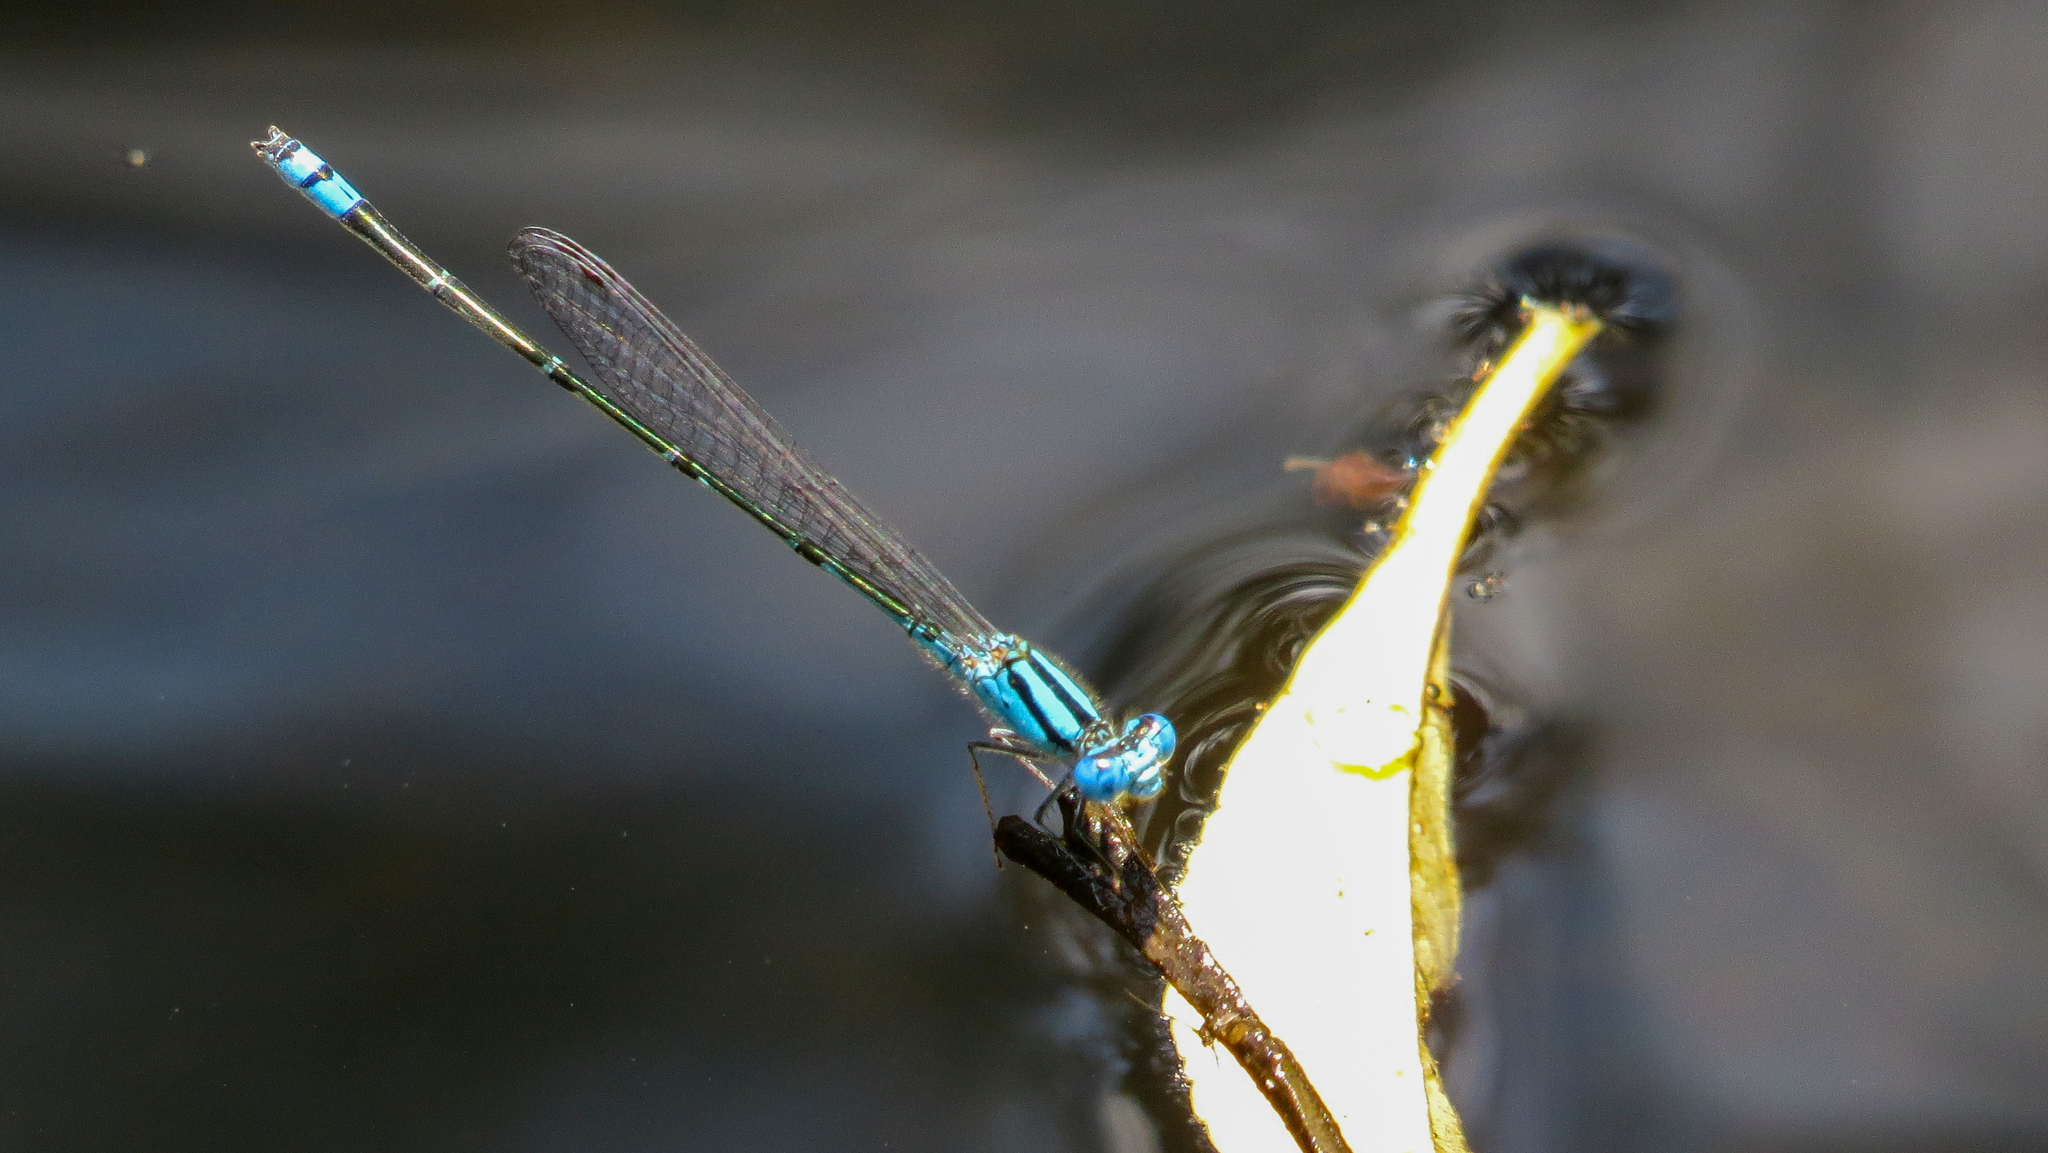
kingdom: Animalia
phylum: Arthropoda
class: Insecta
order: Odonata
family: Coenagrionidae
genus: Pseudagrion
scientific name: Pseudagrion microcephalum
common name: Blue riverdamsel
